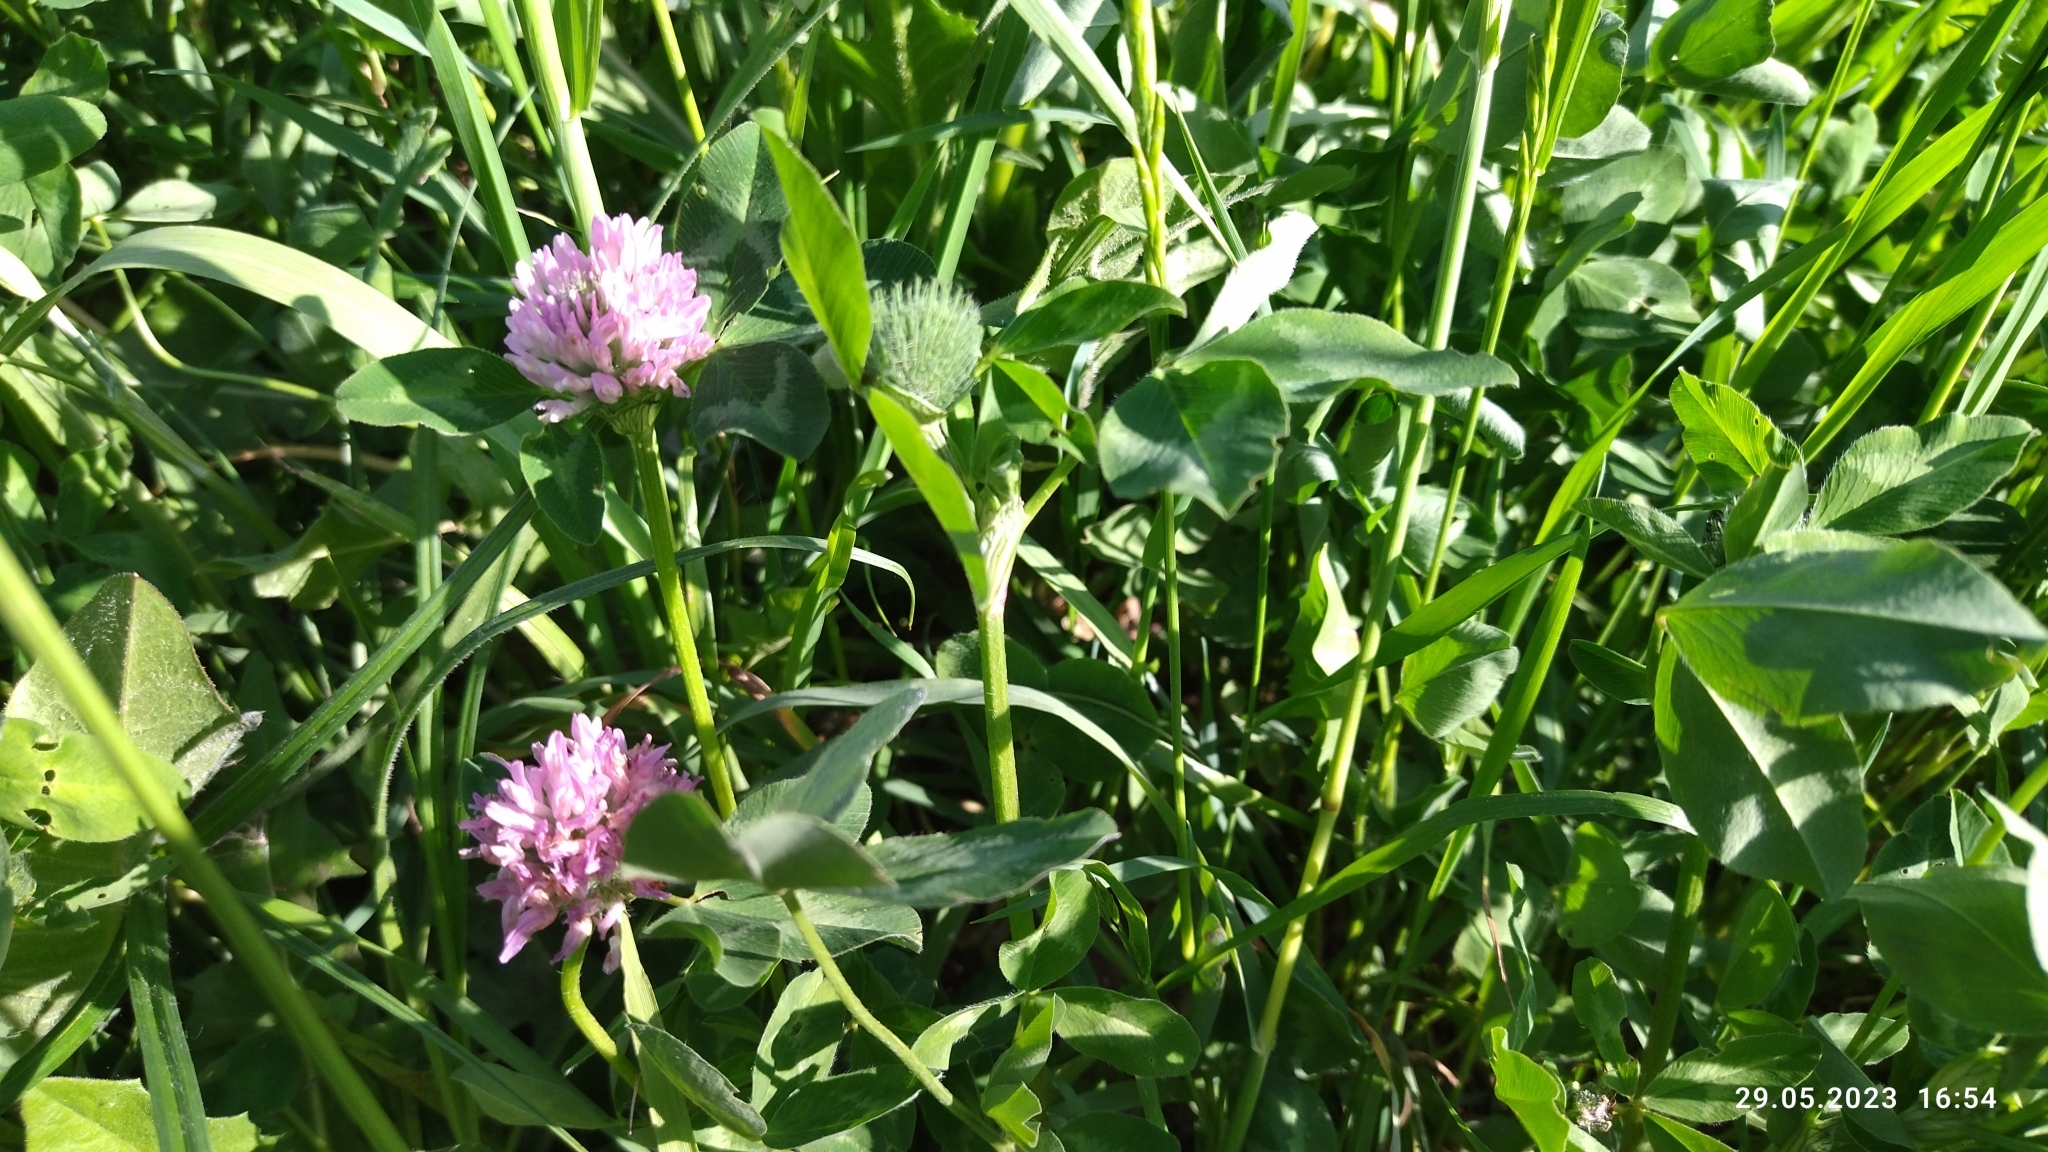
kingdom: Plantae
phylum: Tracheophyta
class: Magnoliopsida
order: Fabales
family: Fabaceae
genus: Trifolium
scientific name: Trifolium pratense
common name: Red clover
